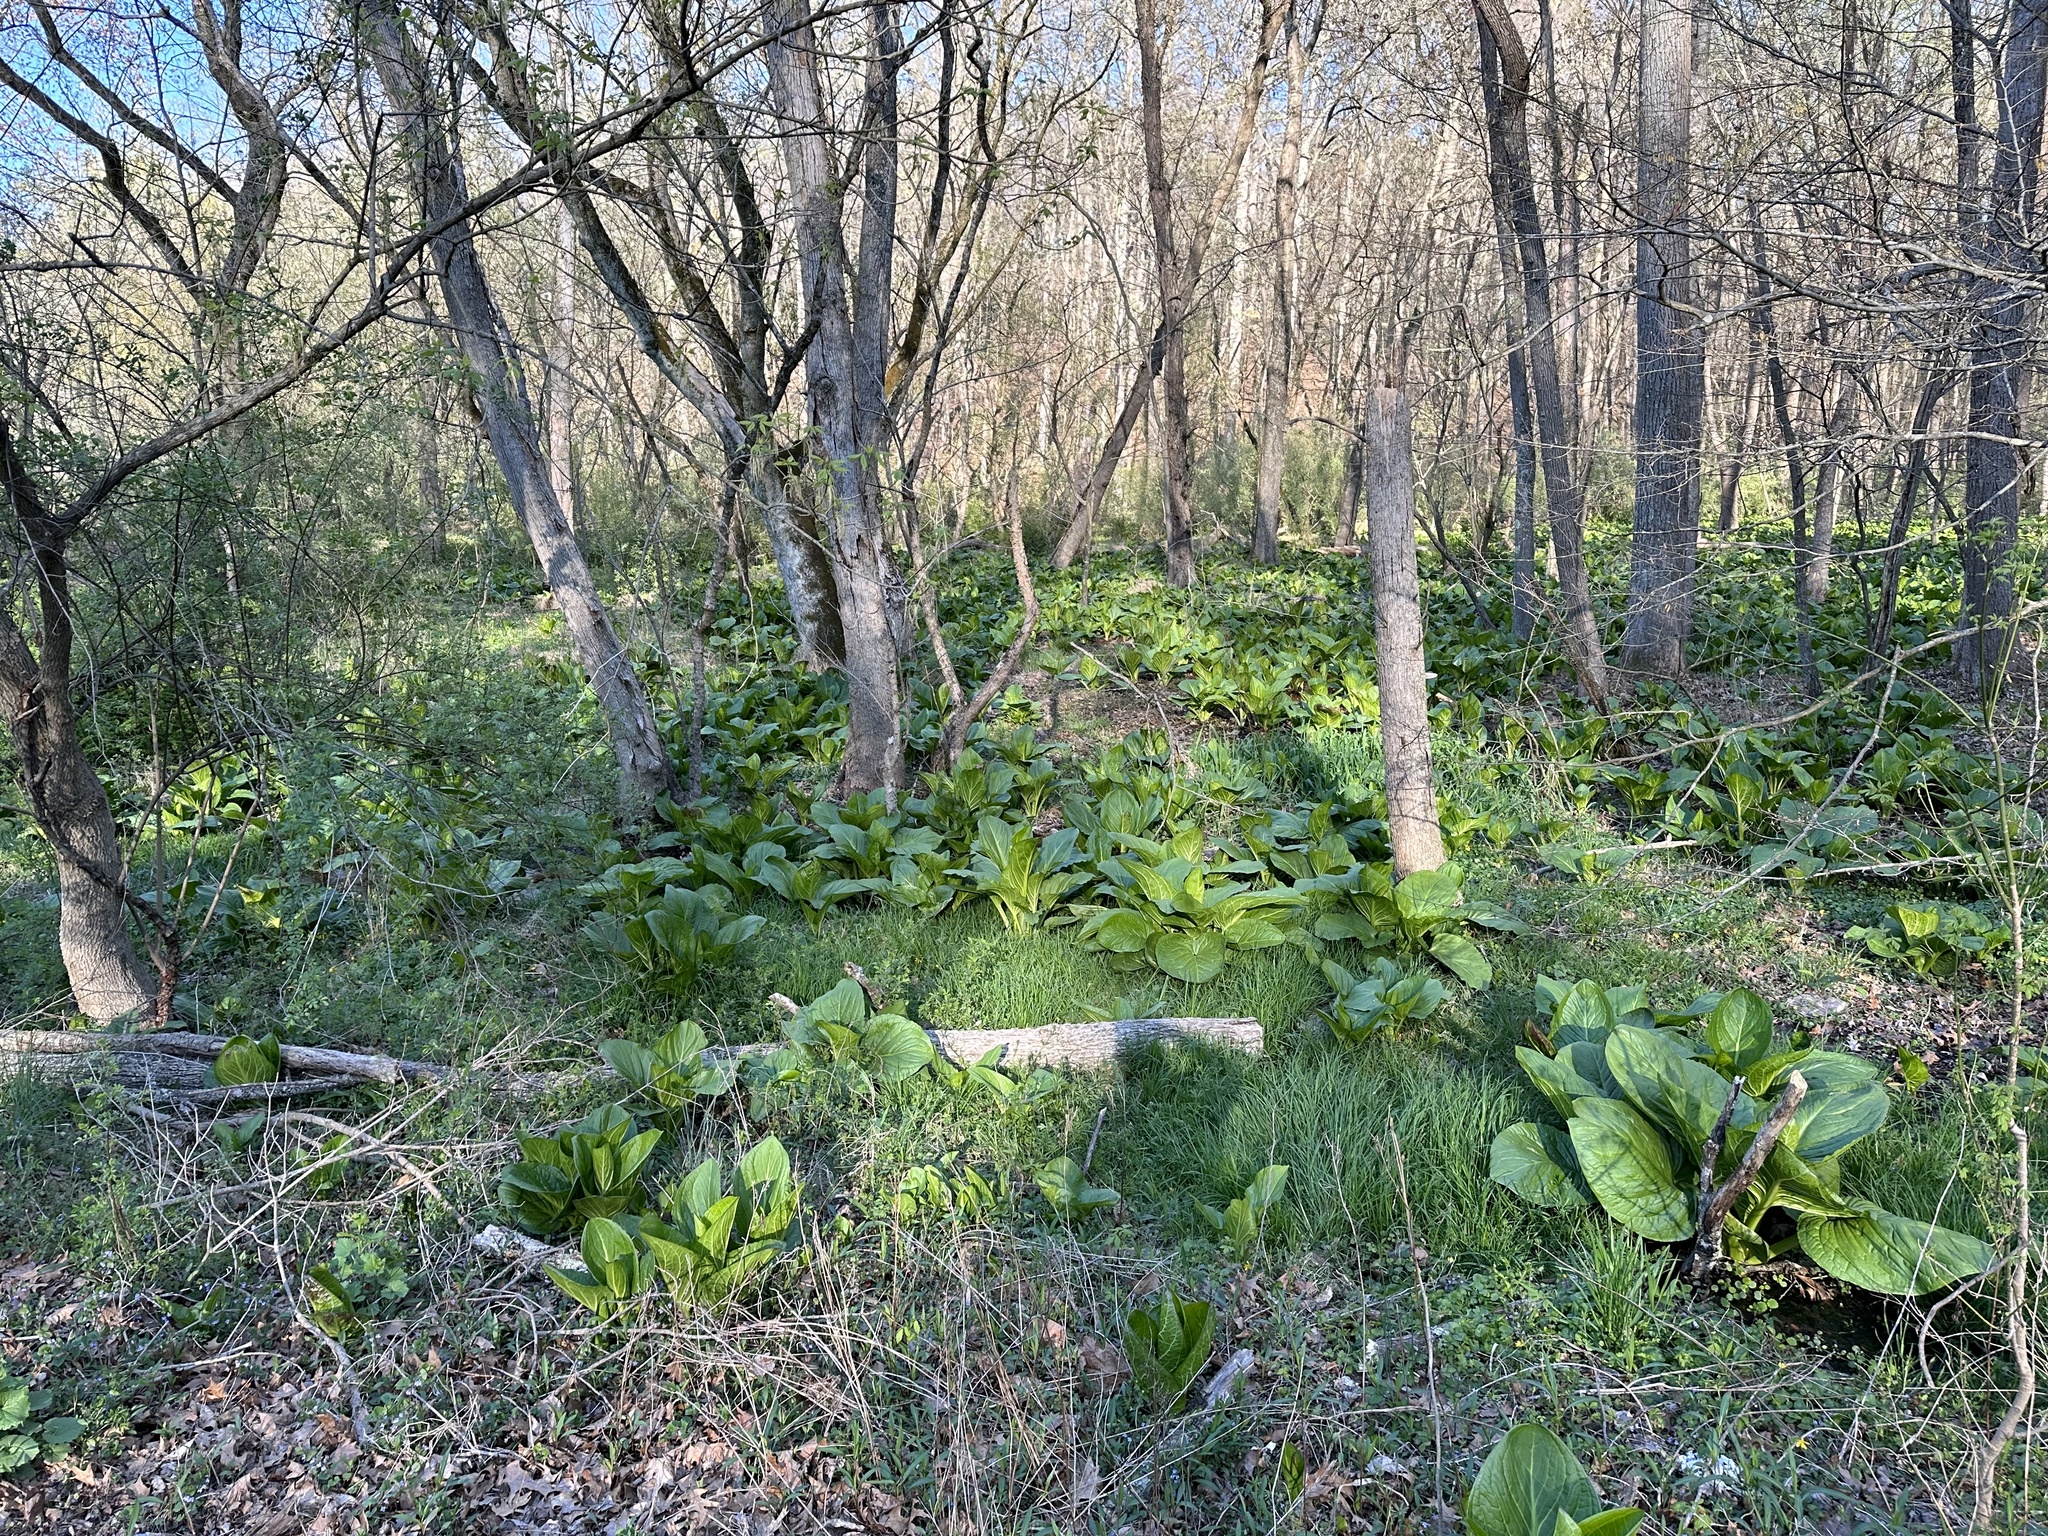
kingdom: Plantae
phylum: Tracheophyta
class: Liliopsida
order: Alismatales
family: Araceae
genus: Symplocarpus
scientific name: Symplocarpus foetidus
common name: Eastern skunk cabbage
